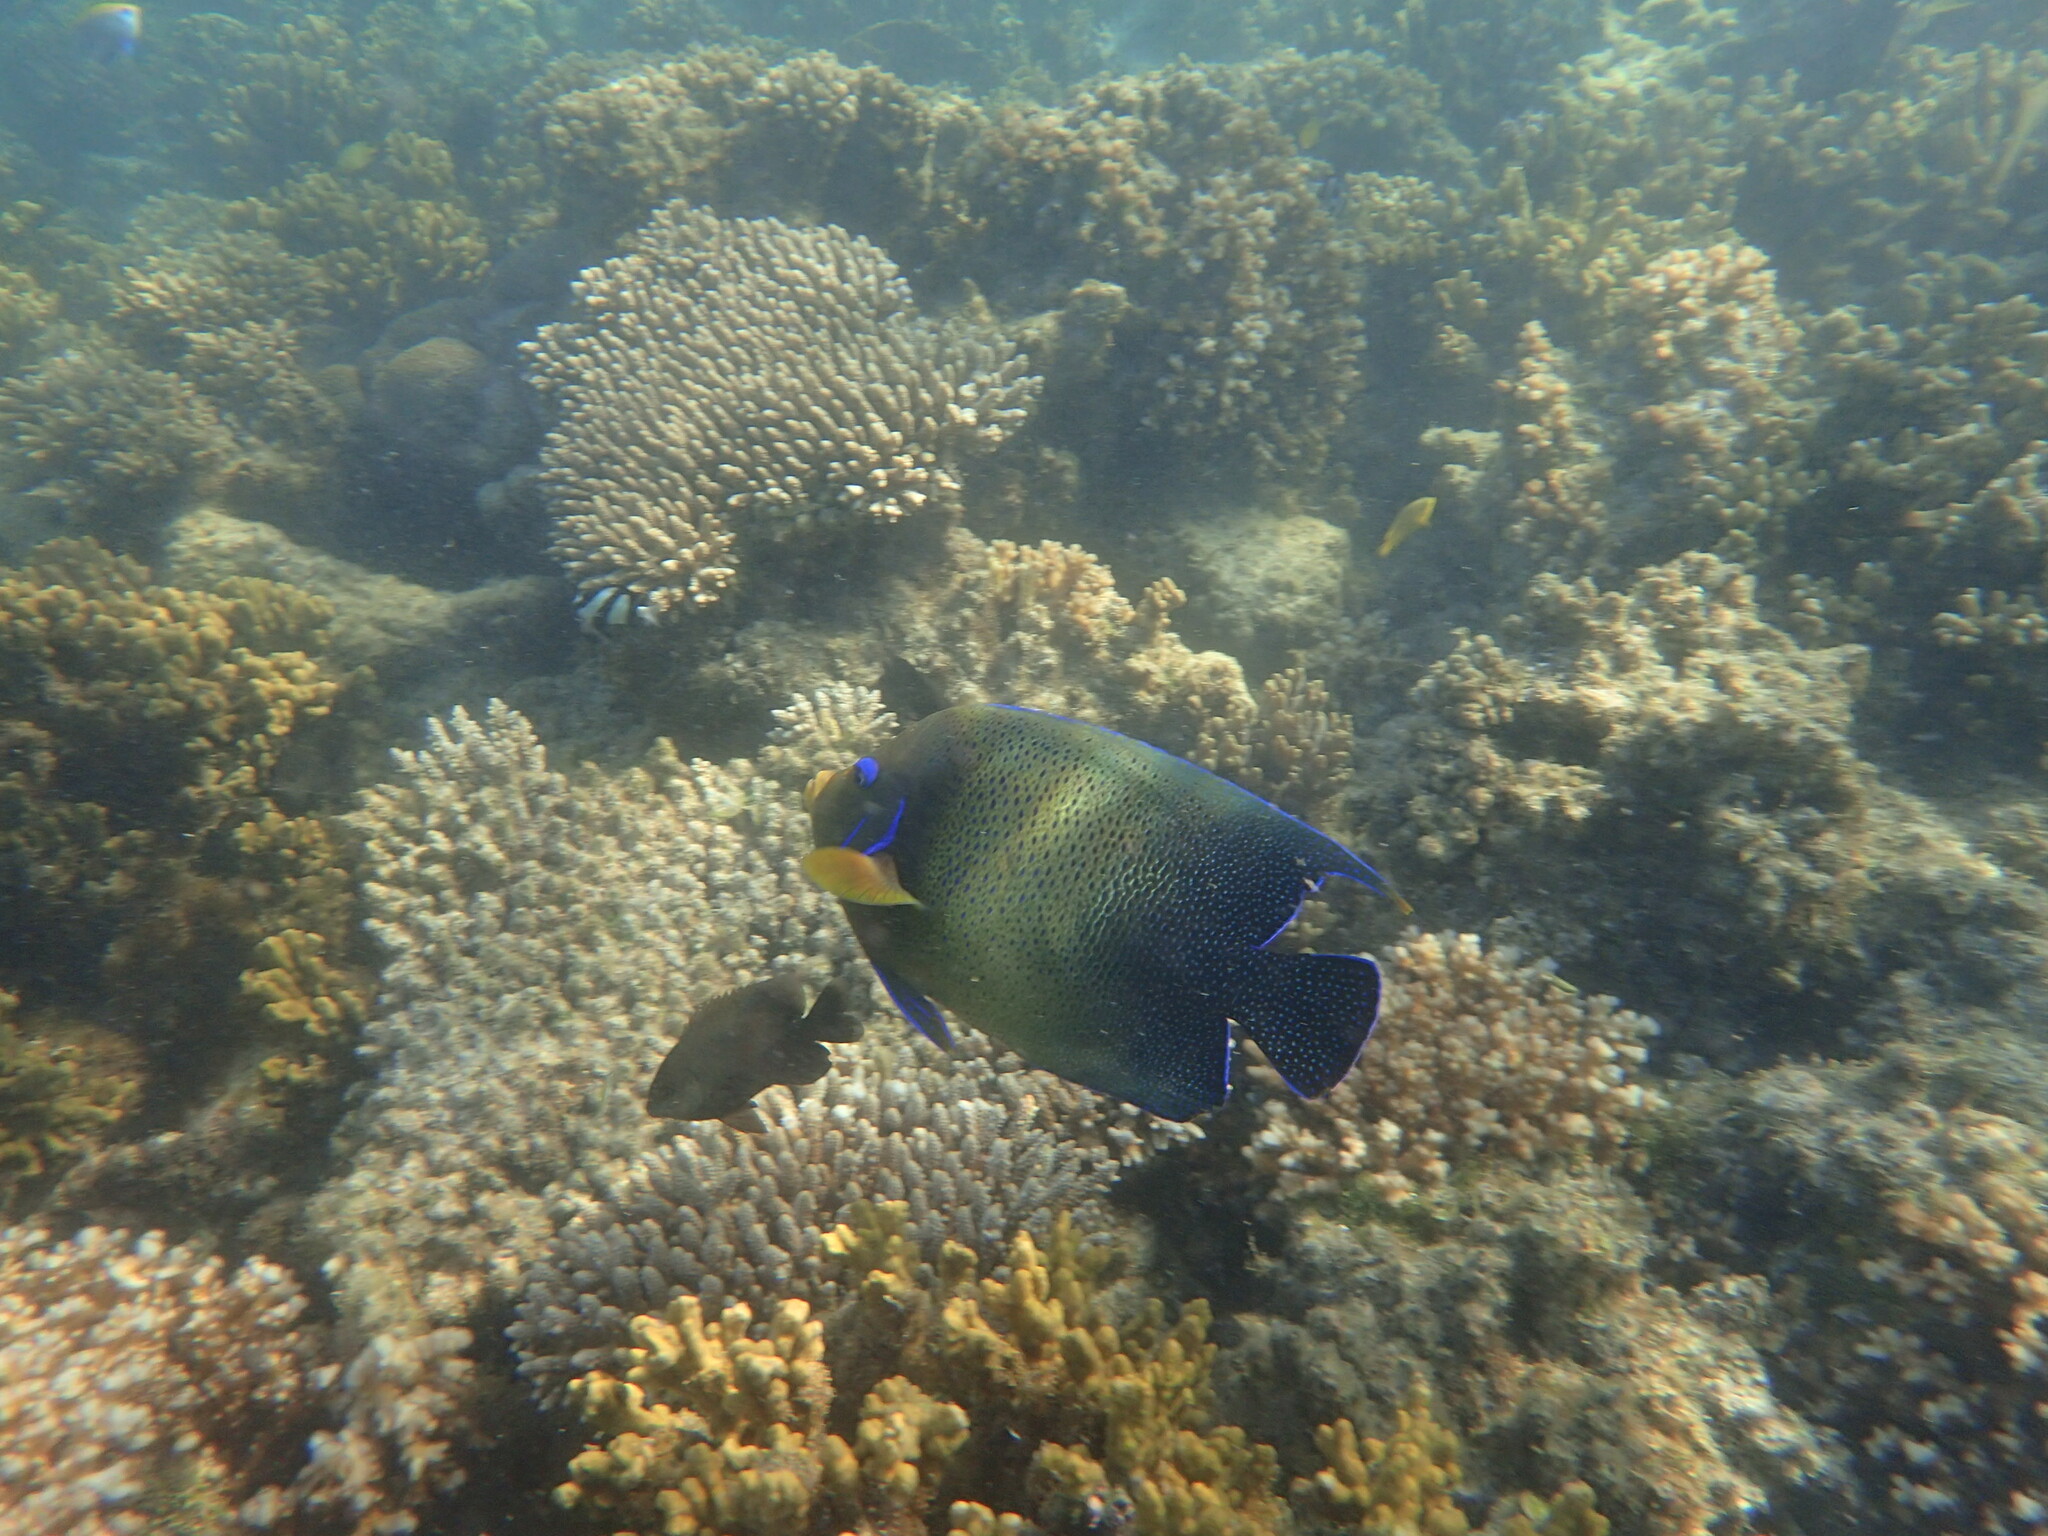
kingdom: Animalia
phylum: Chordata
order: Perciformes
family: Pomacanthidae
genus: Pomacanthus
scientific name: Pomacanthus semicirculatus
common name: Semicircle angelfish
